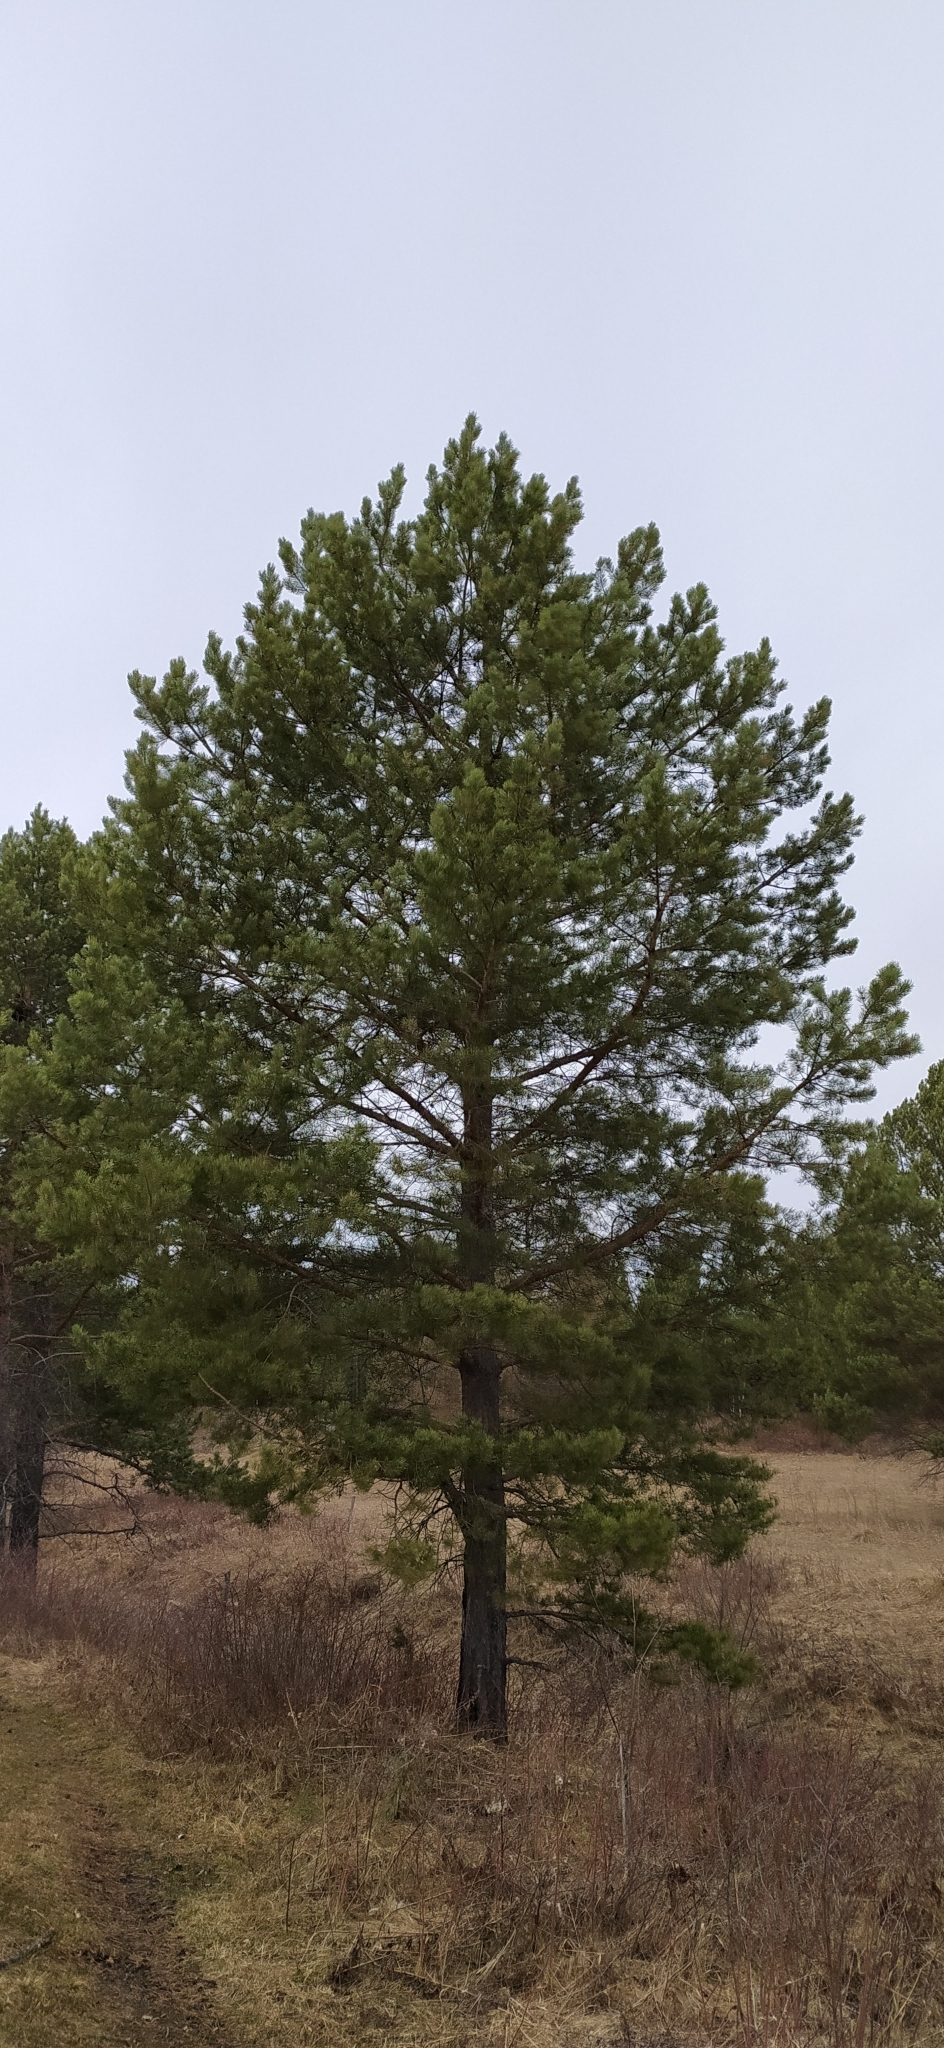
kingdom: Plantae
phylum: Tracheophyta
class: Pinopsida
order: Pinales
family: Pinaceae
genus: Pinus
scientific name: Pinus sylvestris
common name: Scots pine
